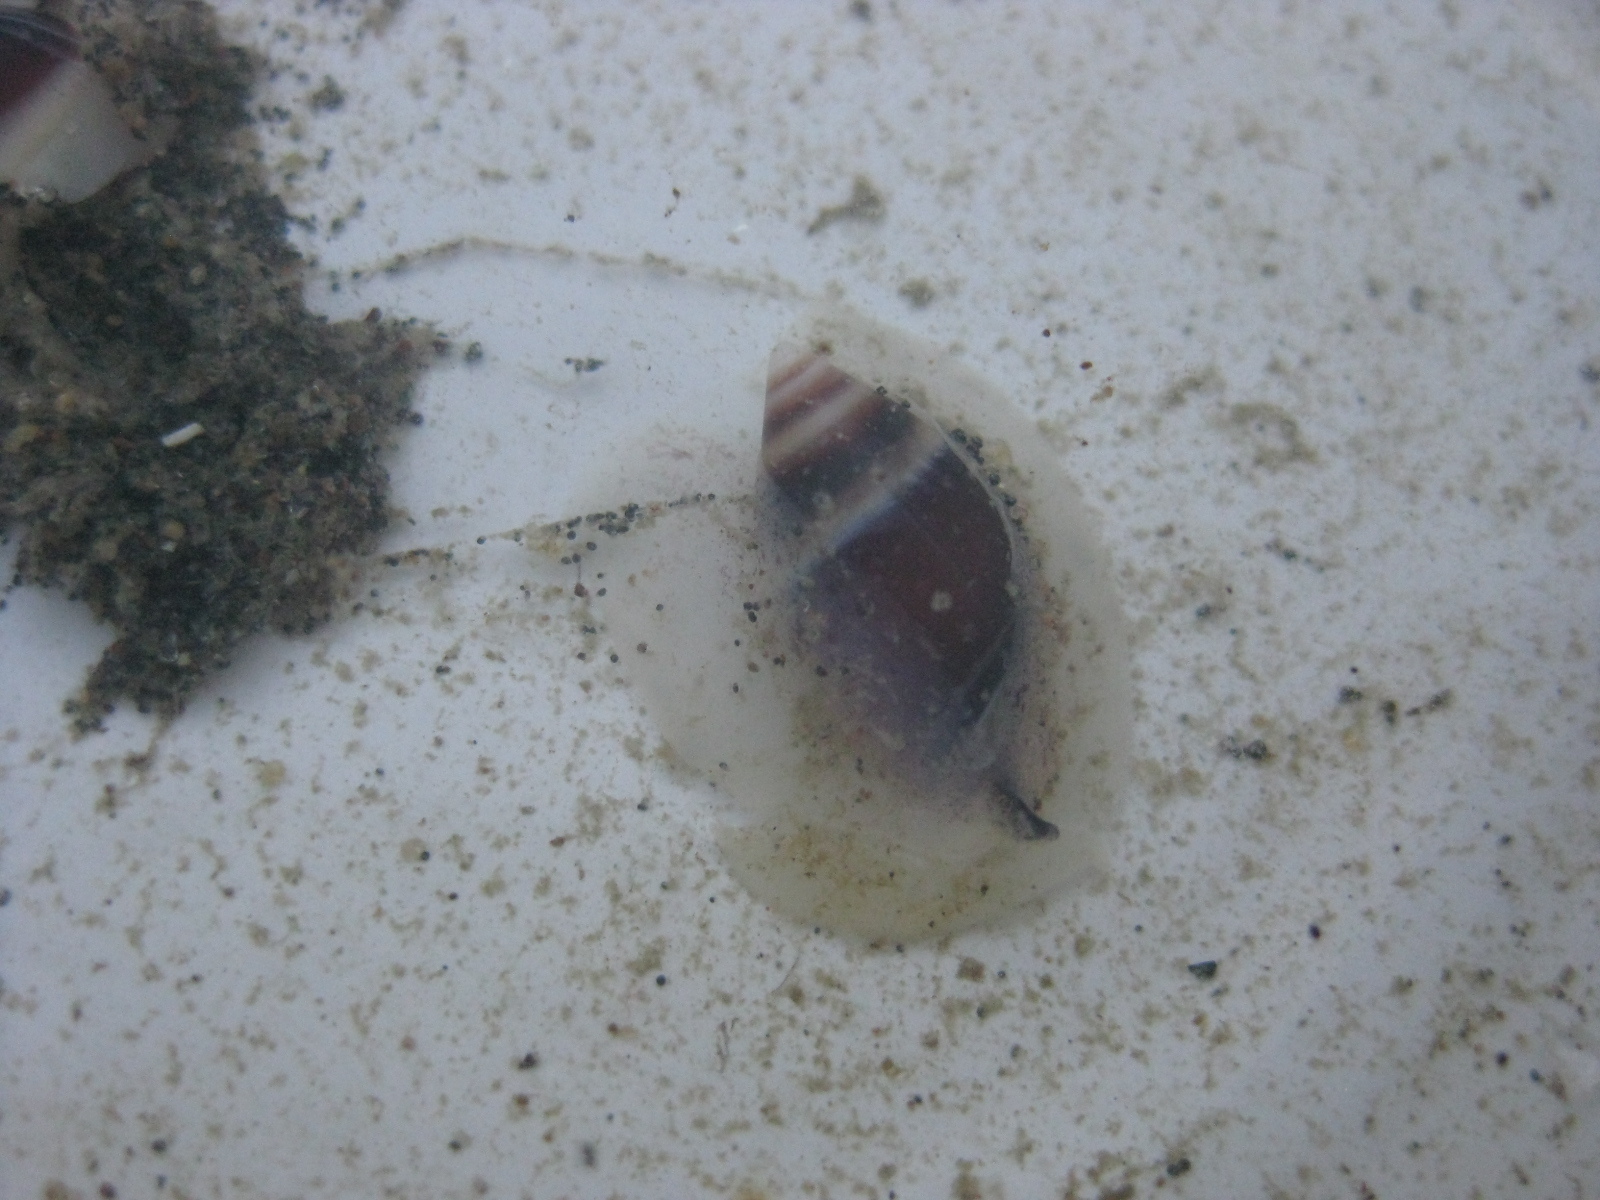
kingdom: Animalia
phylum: Mollusca
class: Gastropoda
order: Neogastropoda
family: Ancillariidae
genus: Amalda
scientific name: Amalda australis
